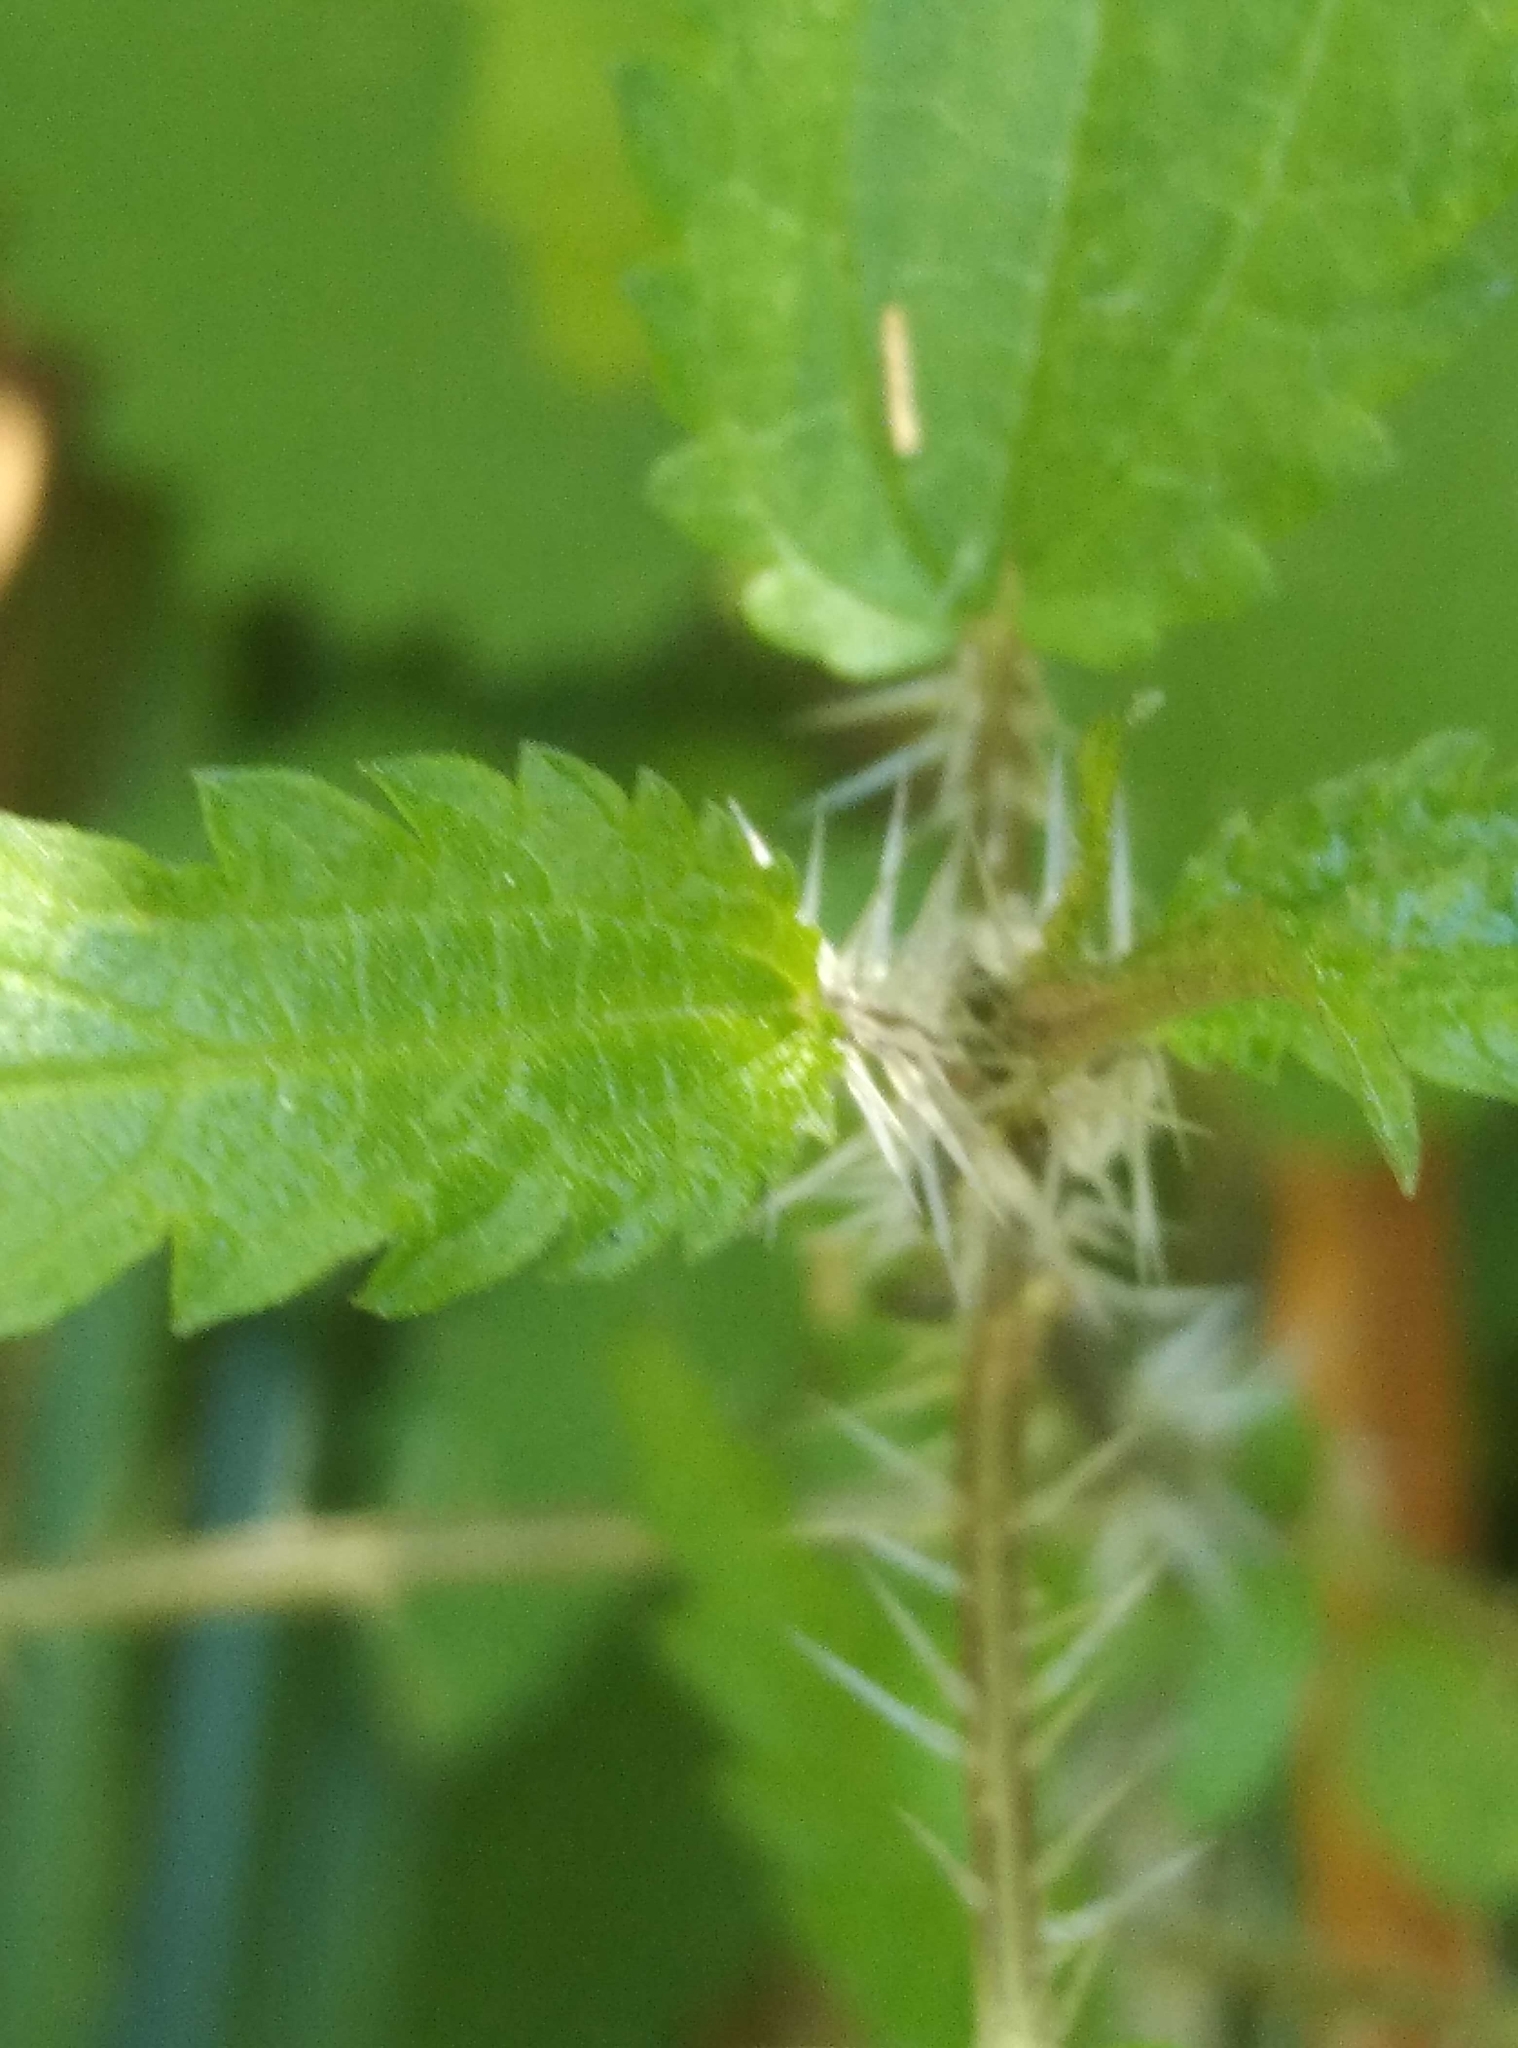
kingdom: Plantae
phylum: Tracheophyta
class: Magnoliopsida
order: Rosales
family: Urticaceae
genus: Urtica
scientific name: Urtica perconfusa
